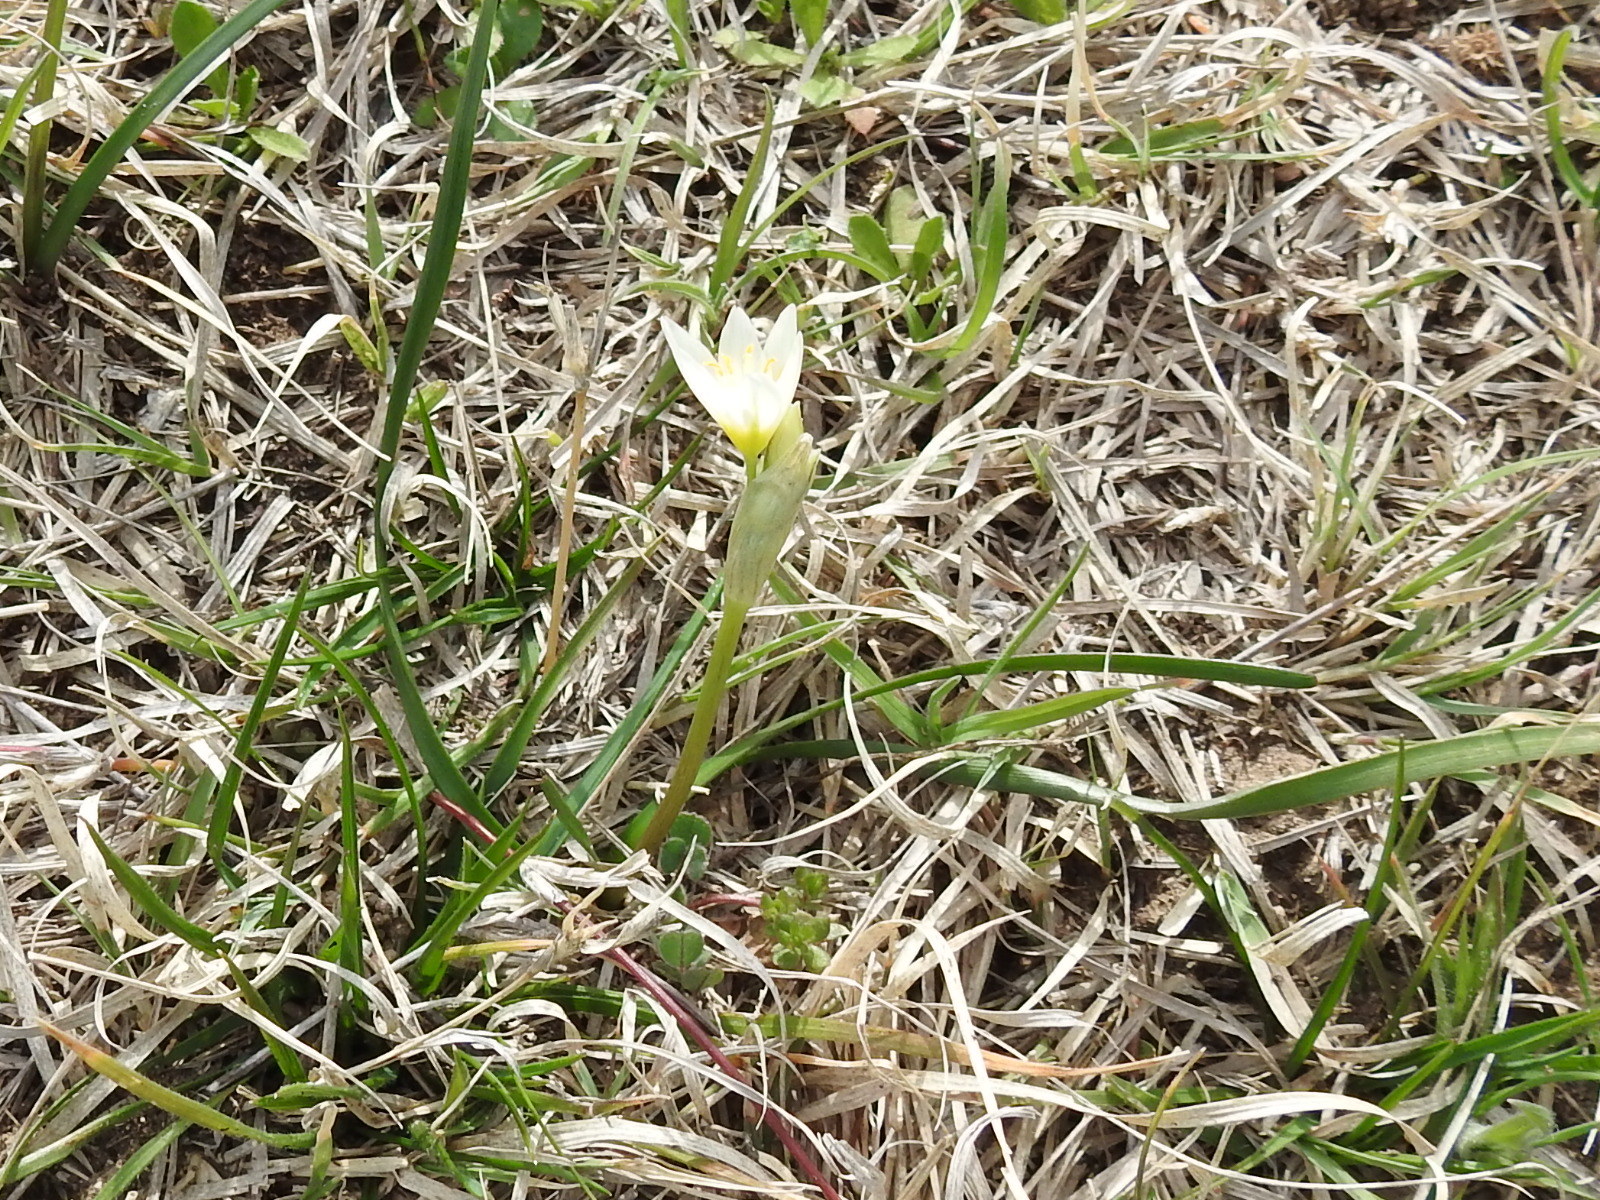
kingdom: Plantae
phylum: Tracheophyta
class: Liliopsida
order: Asparagales
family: Amaryllidaceae
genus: Nothoscordum
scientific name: Nothoscordum bivalve
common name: Crow-poison
